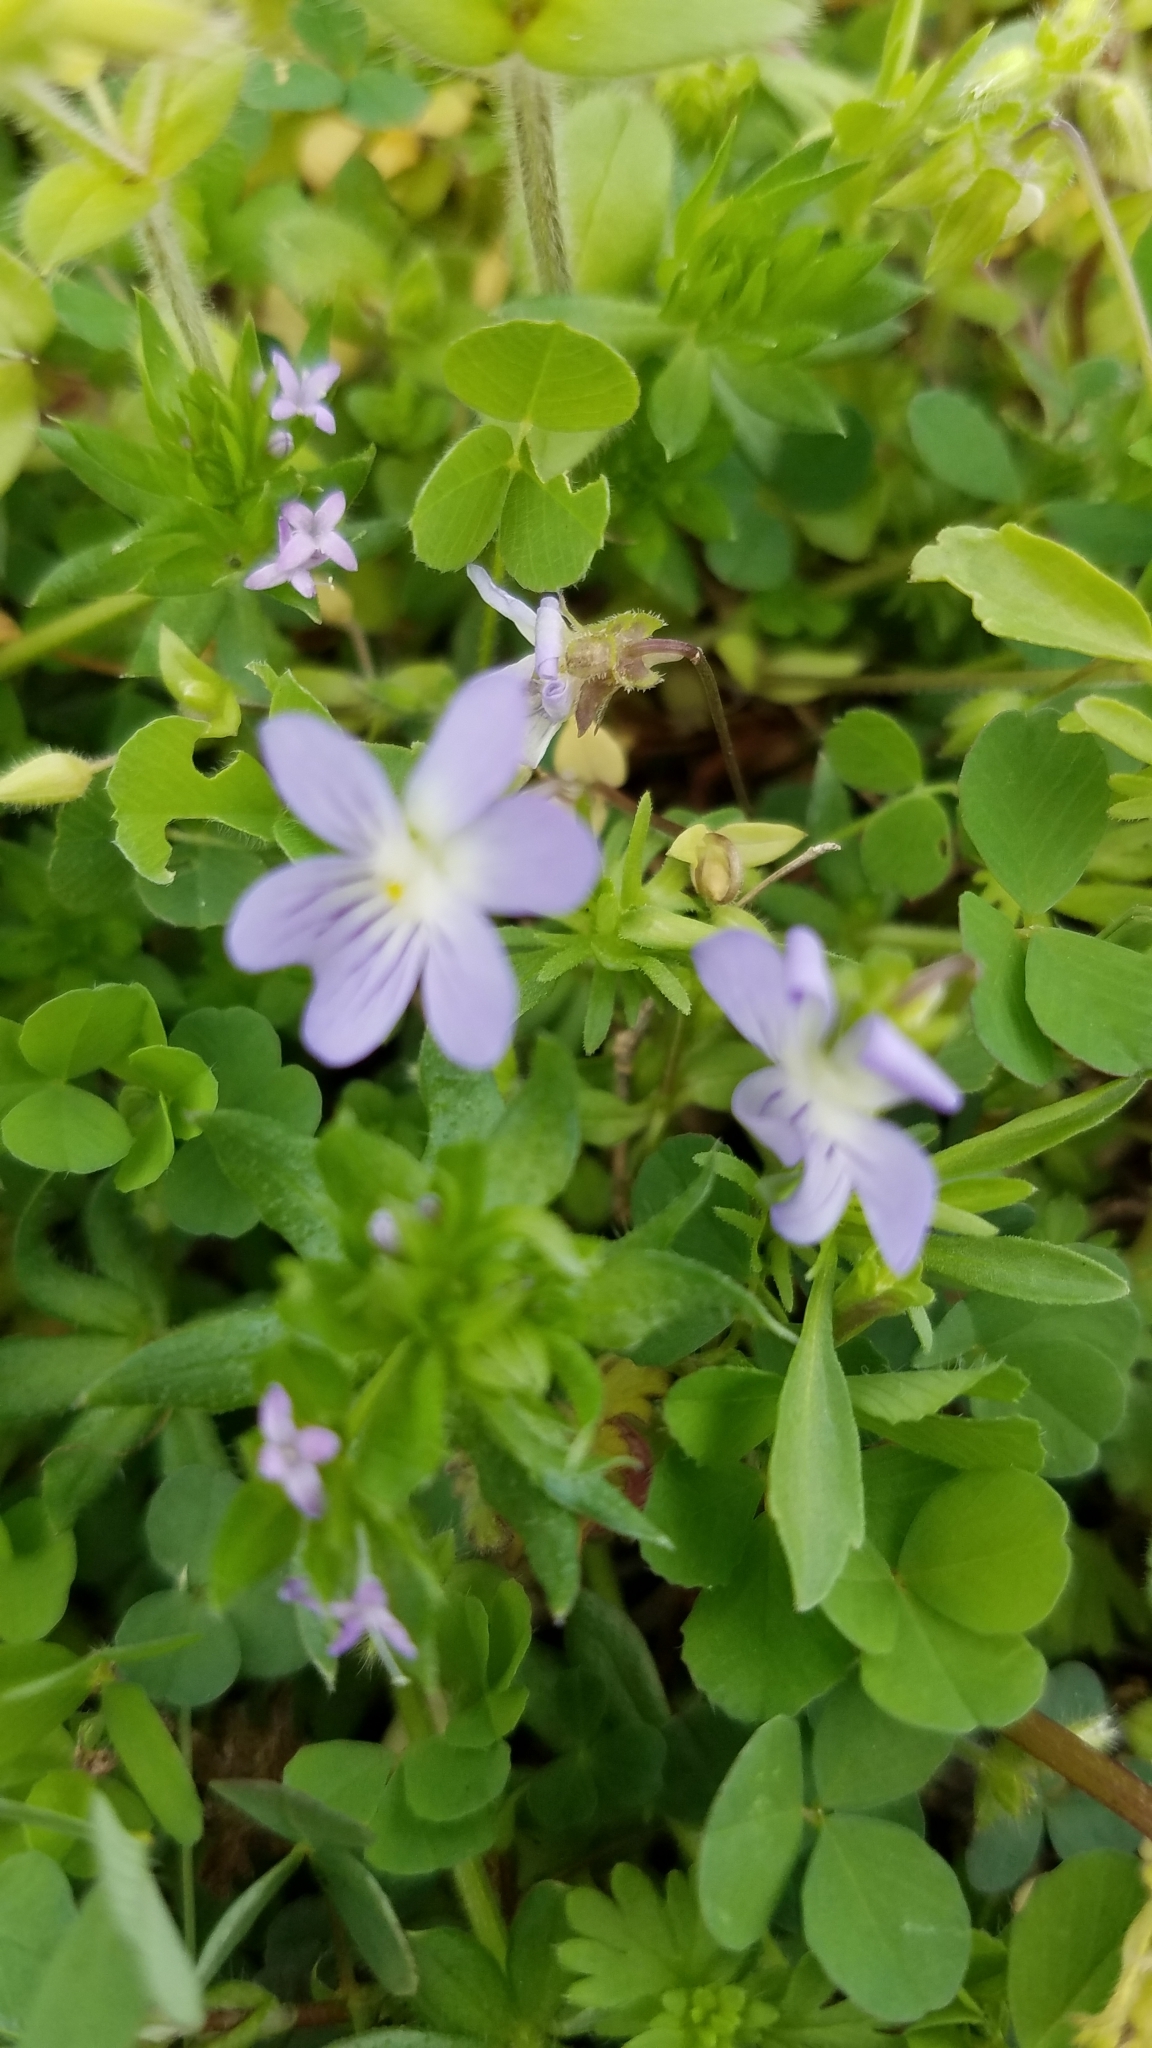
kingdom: Plantae
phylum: Tracheophyta
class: Magnoliopsida
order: Malpighiales
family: Violaceae
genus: Viola
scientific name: Viola rafinesquei
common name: American field pansy
